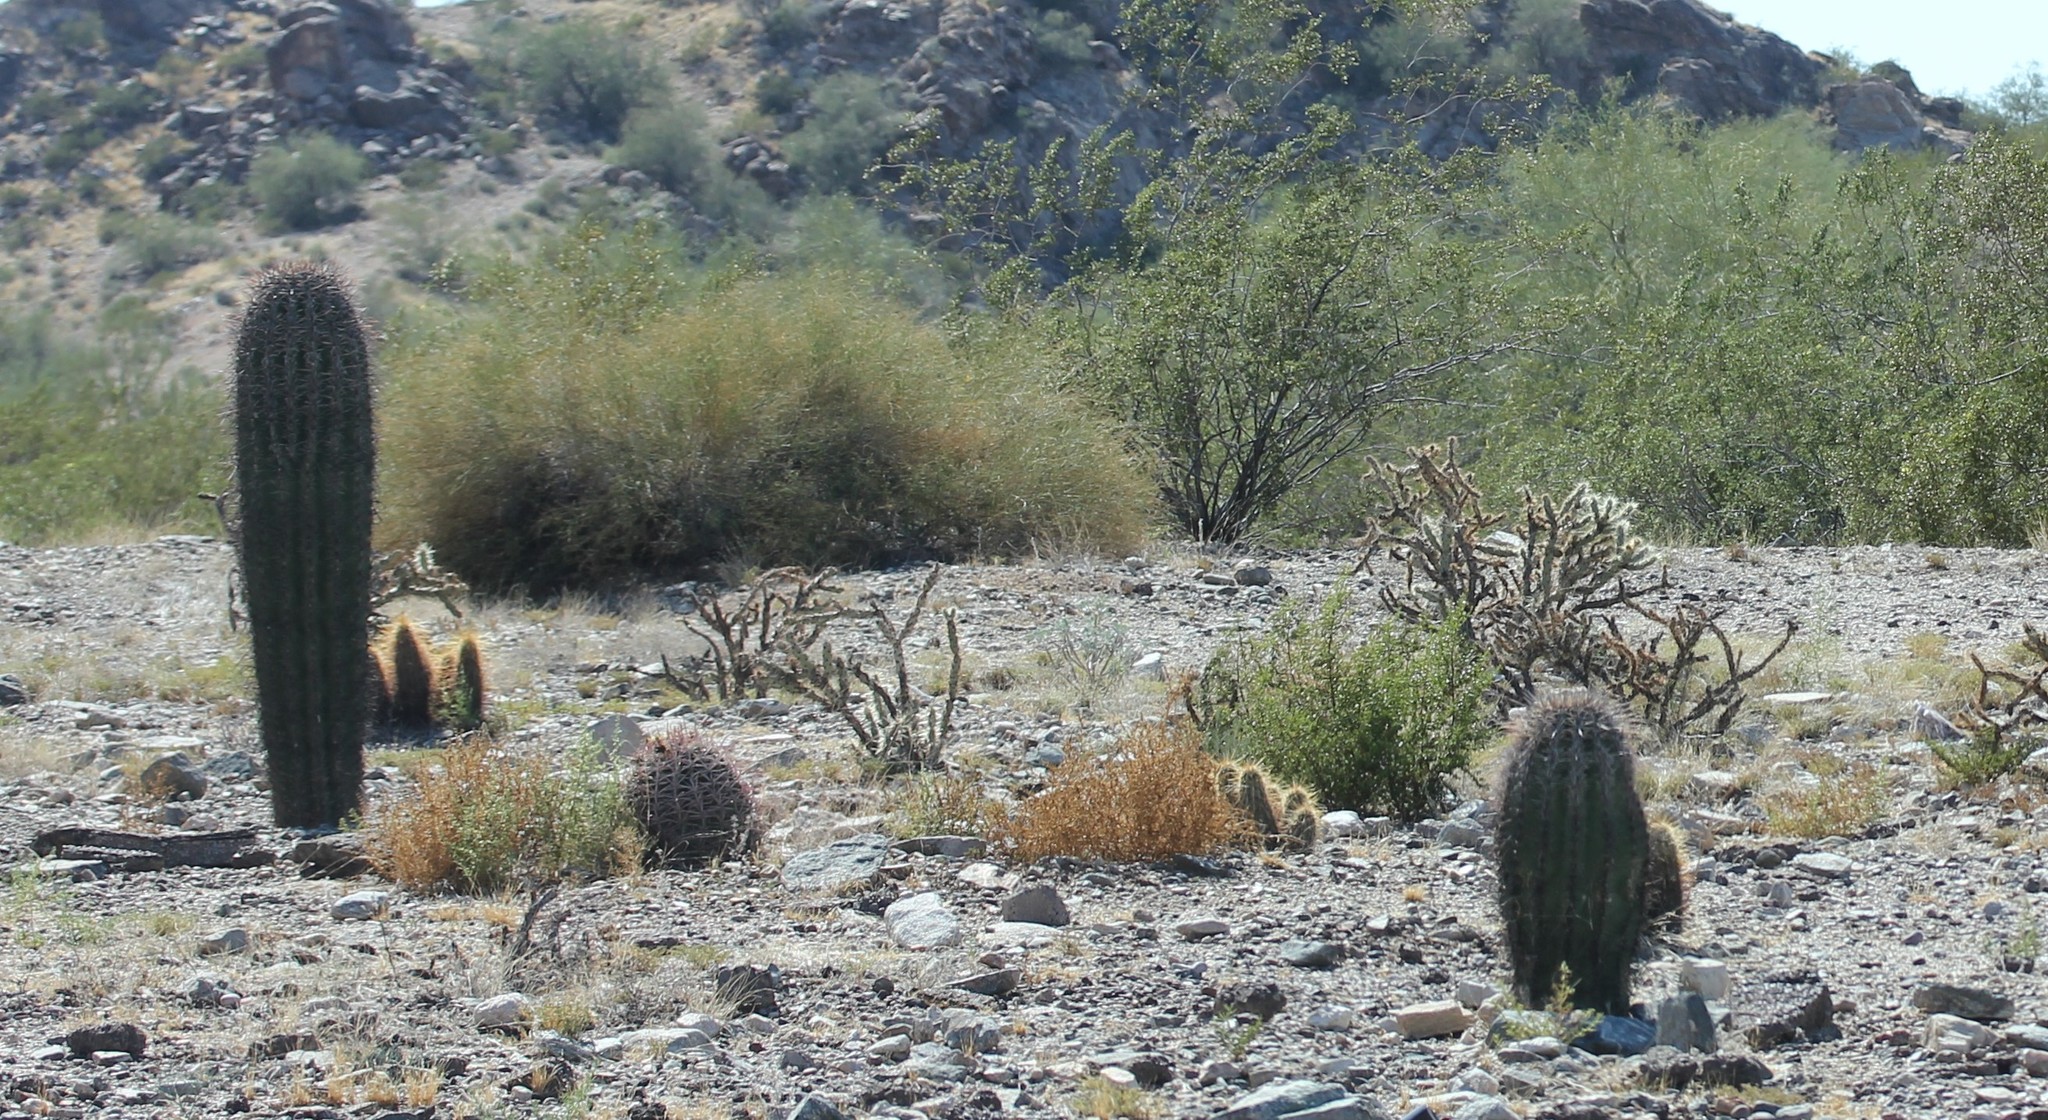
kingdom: Plantae
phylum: Tracheophyta
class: Magnoliopsida
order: Caryophyllales
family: Cactaceae
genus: Carnegiea
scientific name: Carnegiea gigantea
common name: Saguaro
